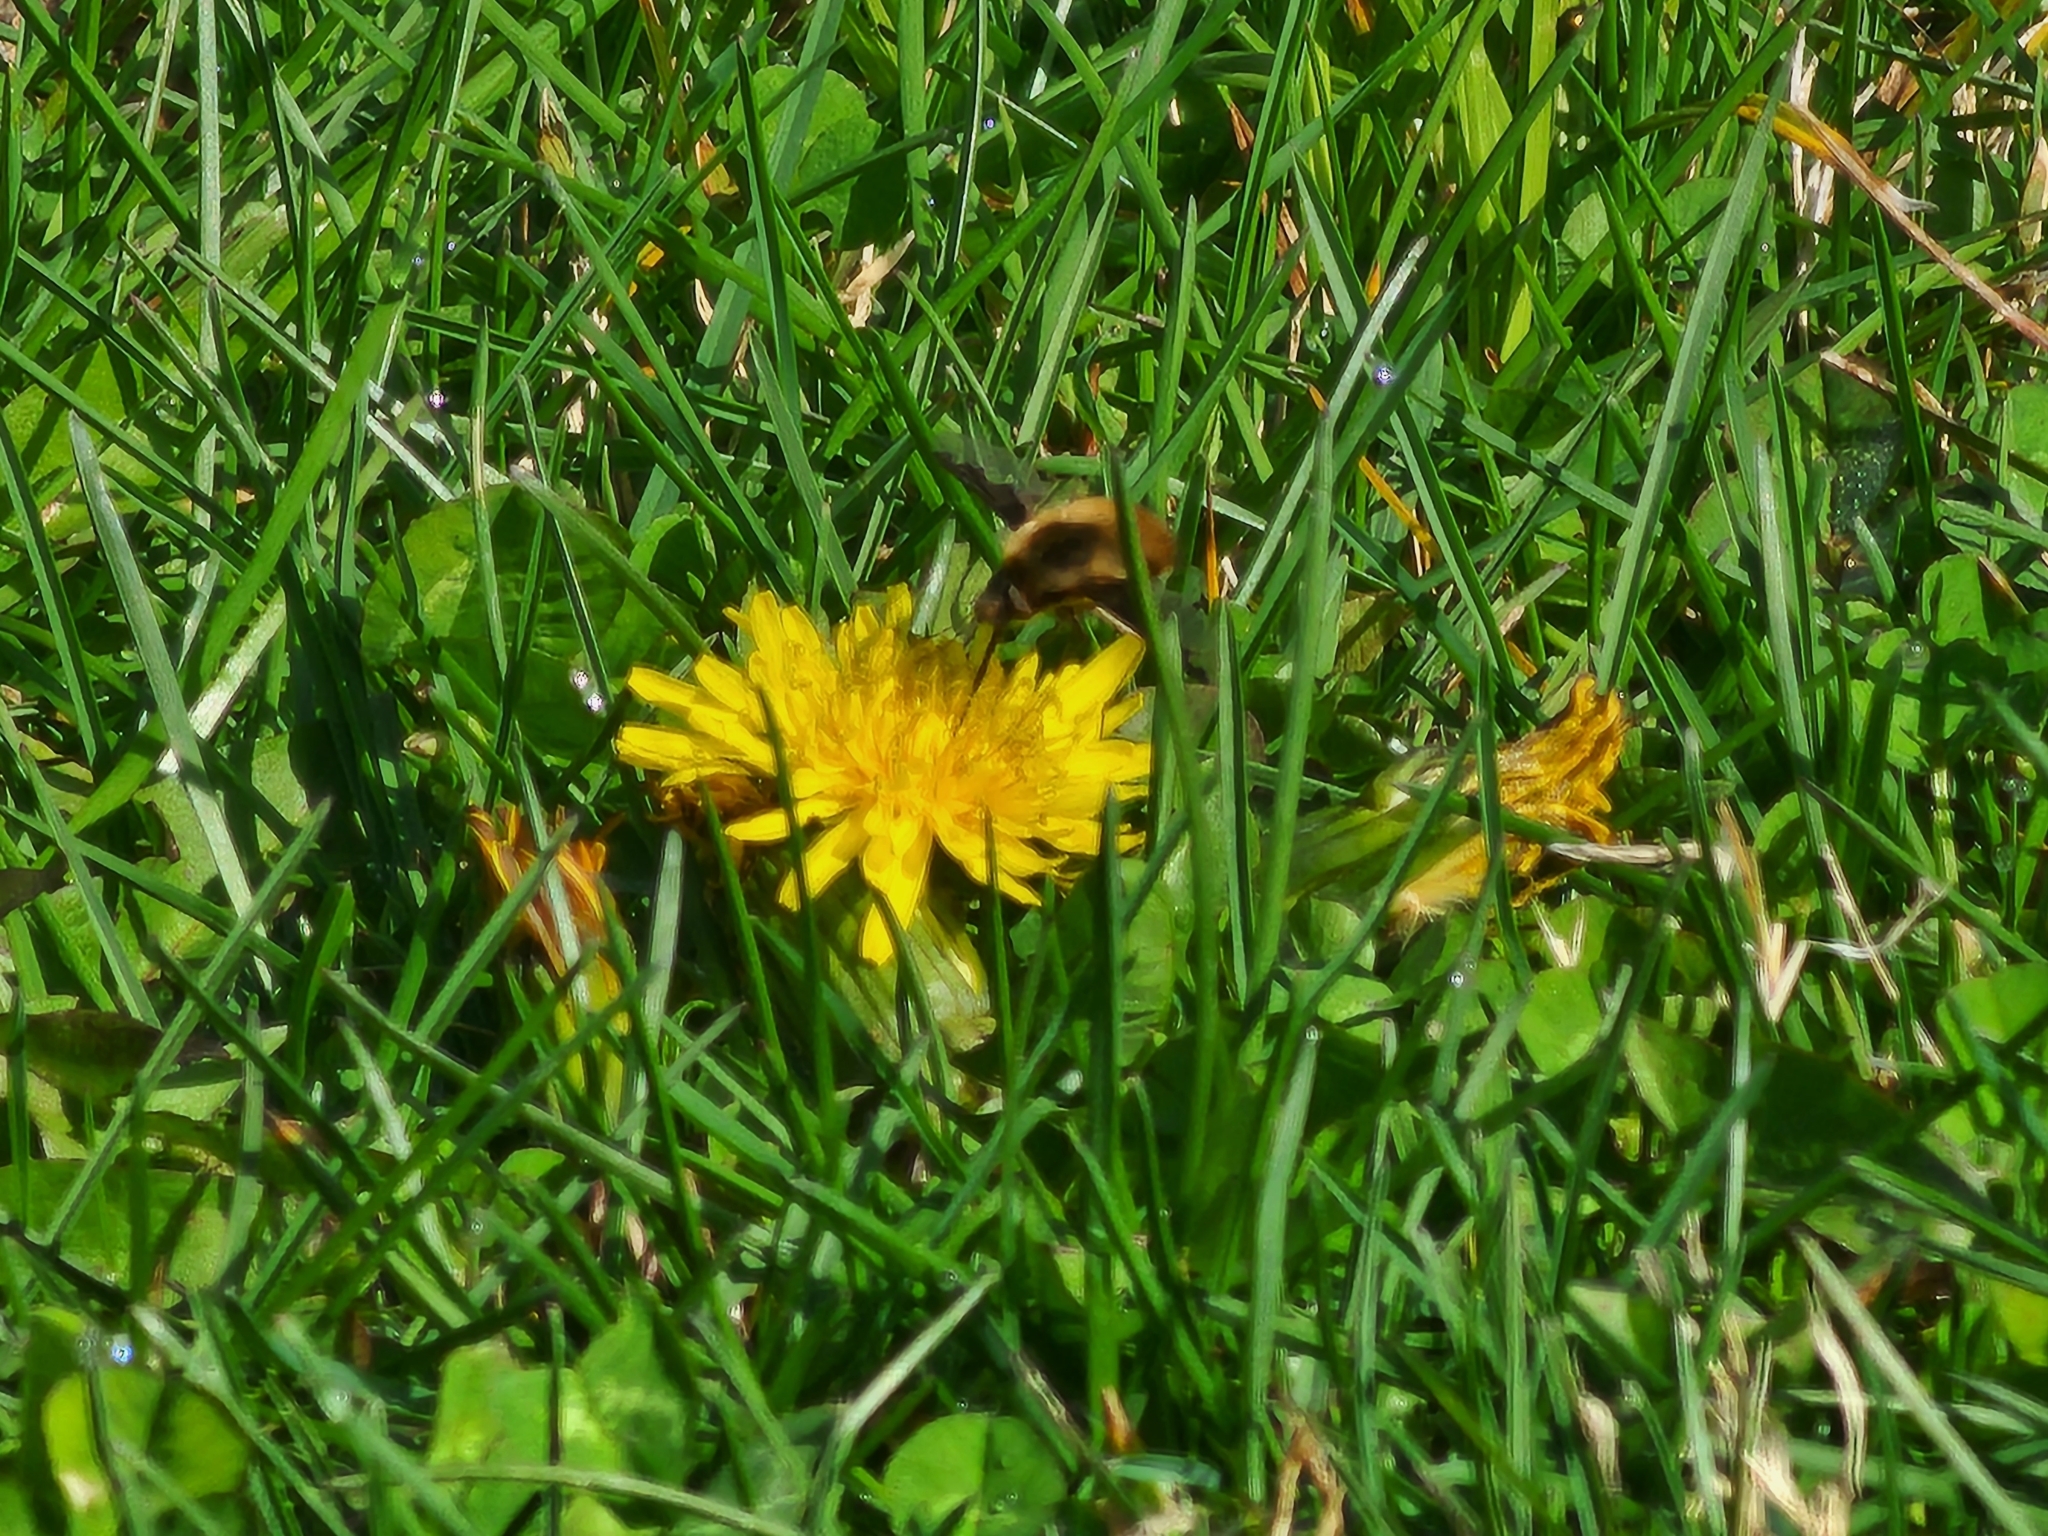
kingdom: Animalia
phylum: Arthropoda
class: Insecta
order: Diptera
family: Bombyliidae
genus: Bombylius
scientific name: Bombylius major
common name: Bee fly
